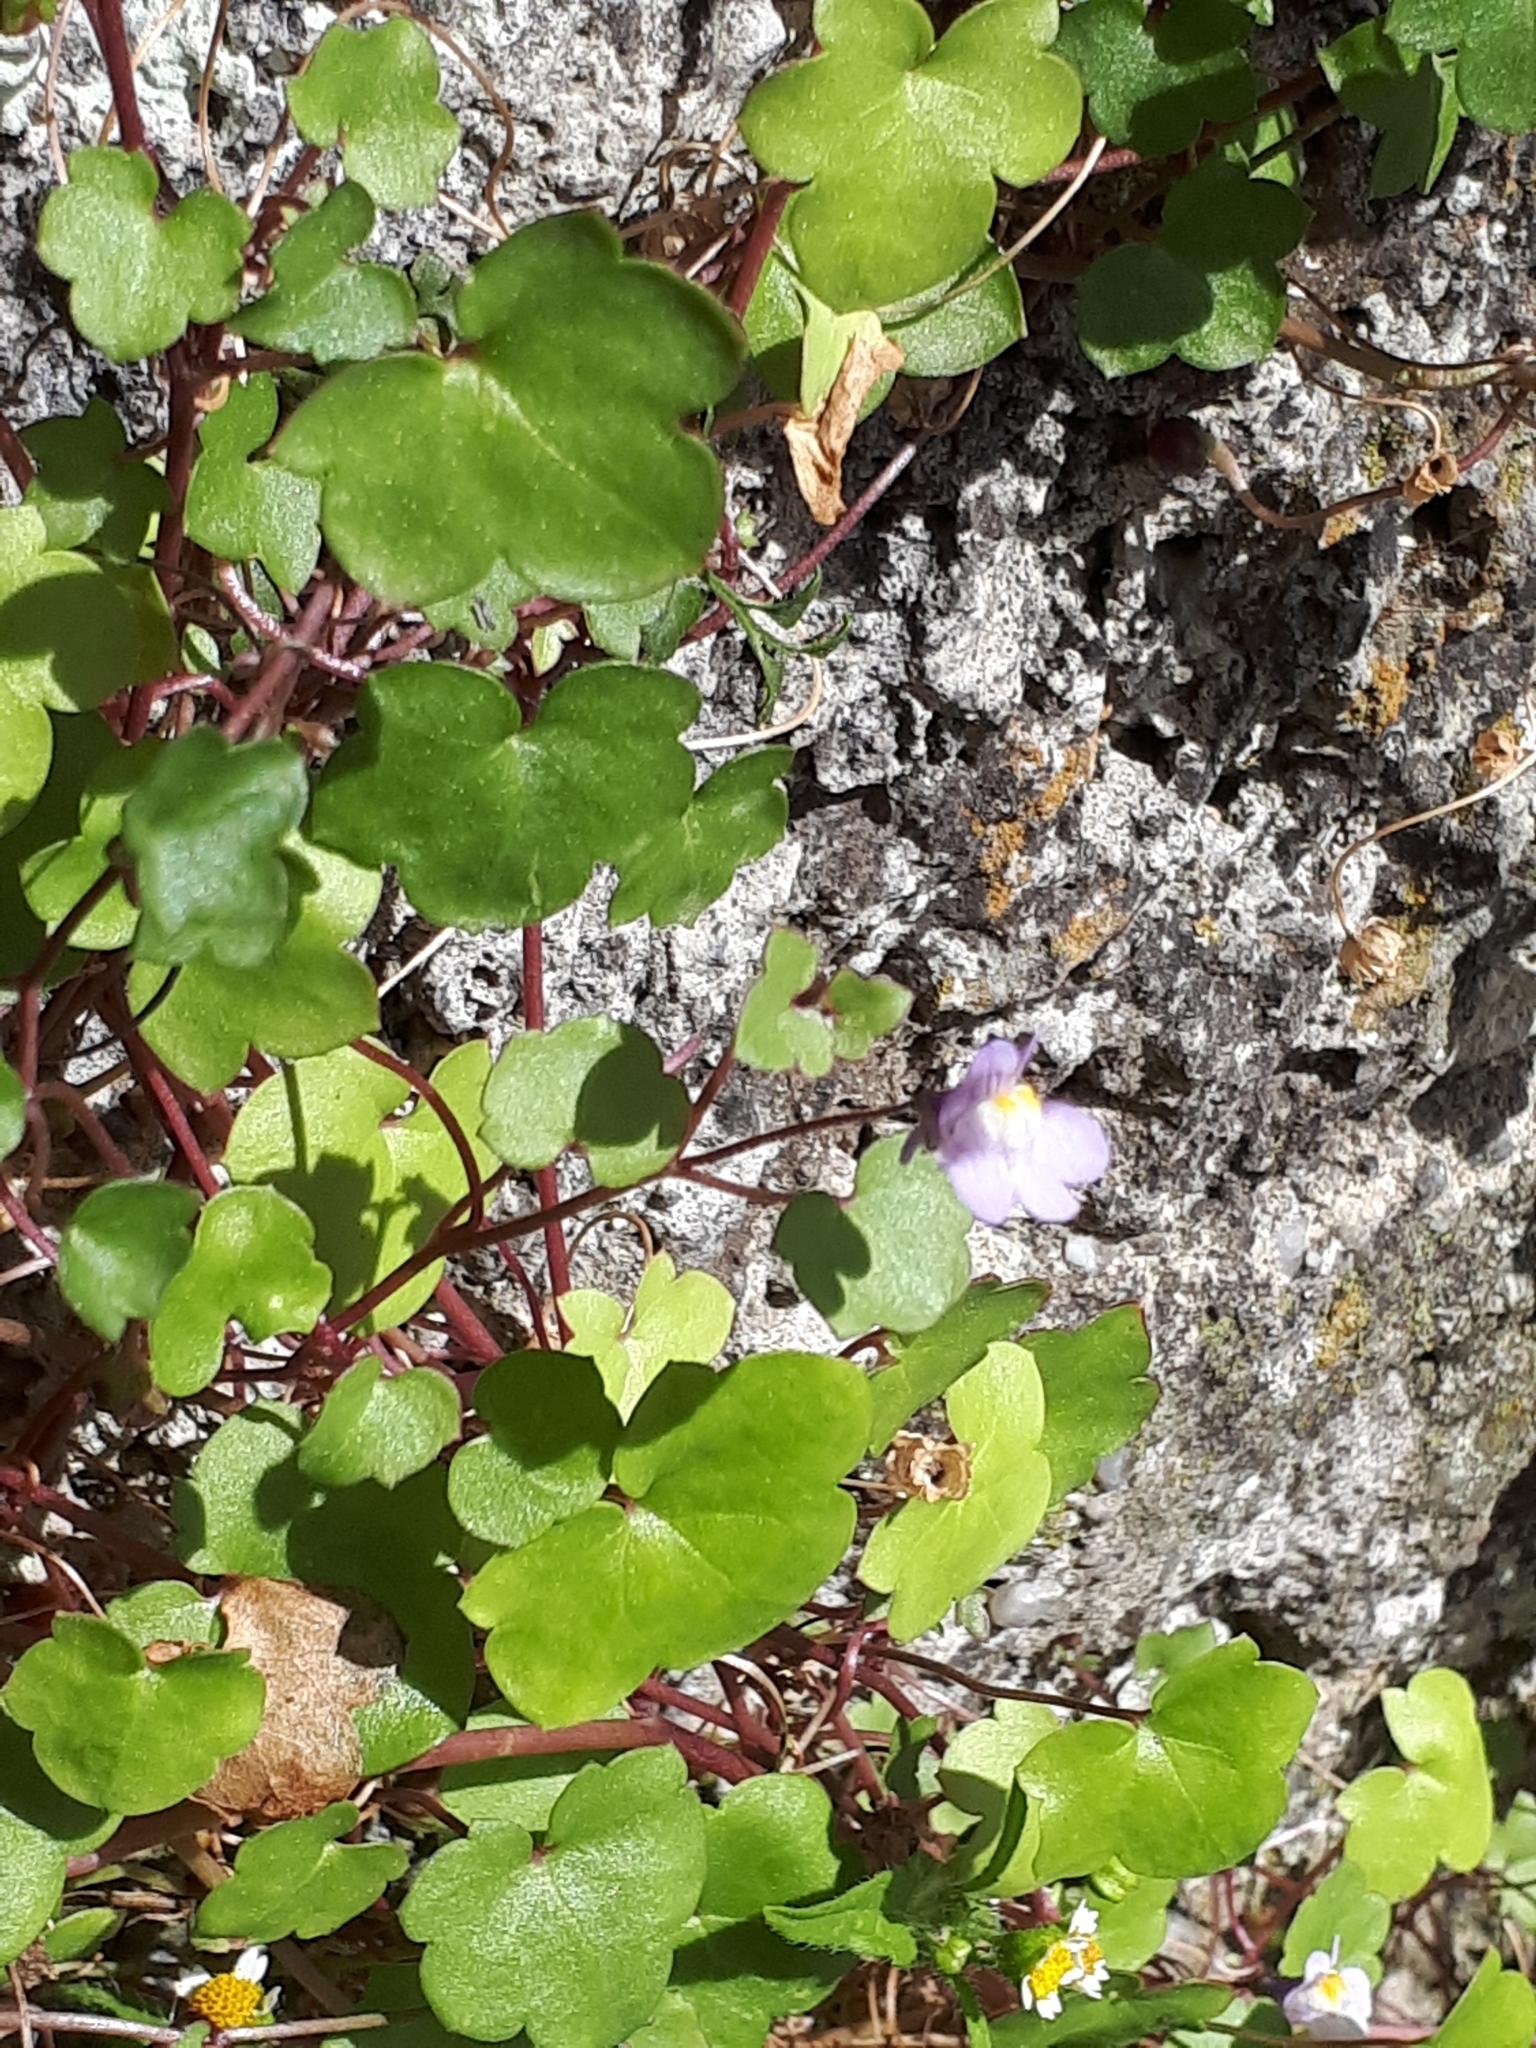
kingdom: Plantae
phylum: Tracheophyta
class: Magnoliopsida
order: Lamiales
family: Plantaginaceae
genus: Cymbalaria
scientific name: Cymbalaria muralis
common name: Ivy-leaved toadflax
